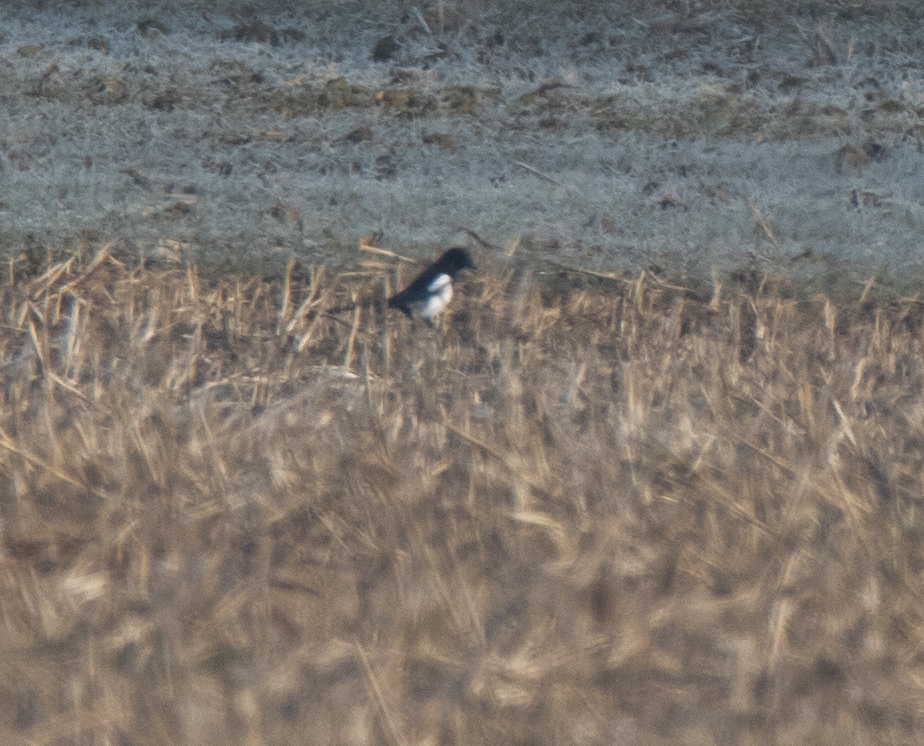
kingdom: Animalia
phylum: Chordata
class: Aves
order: Passeriformes
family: Corvidae
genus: Pica
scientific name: Pica pica
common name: Eurasian magpie
